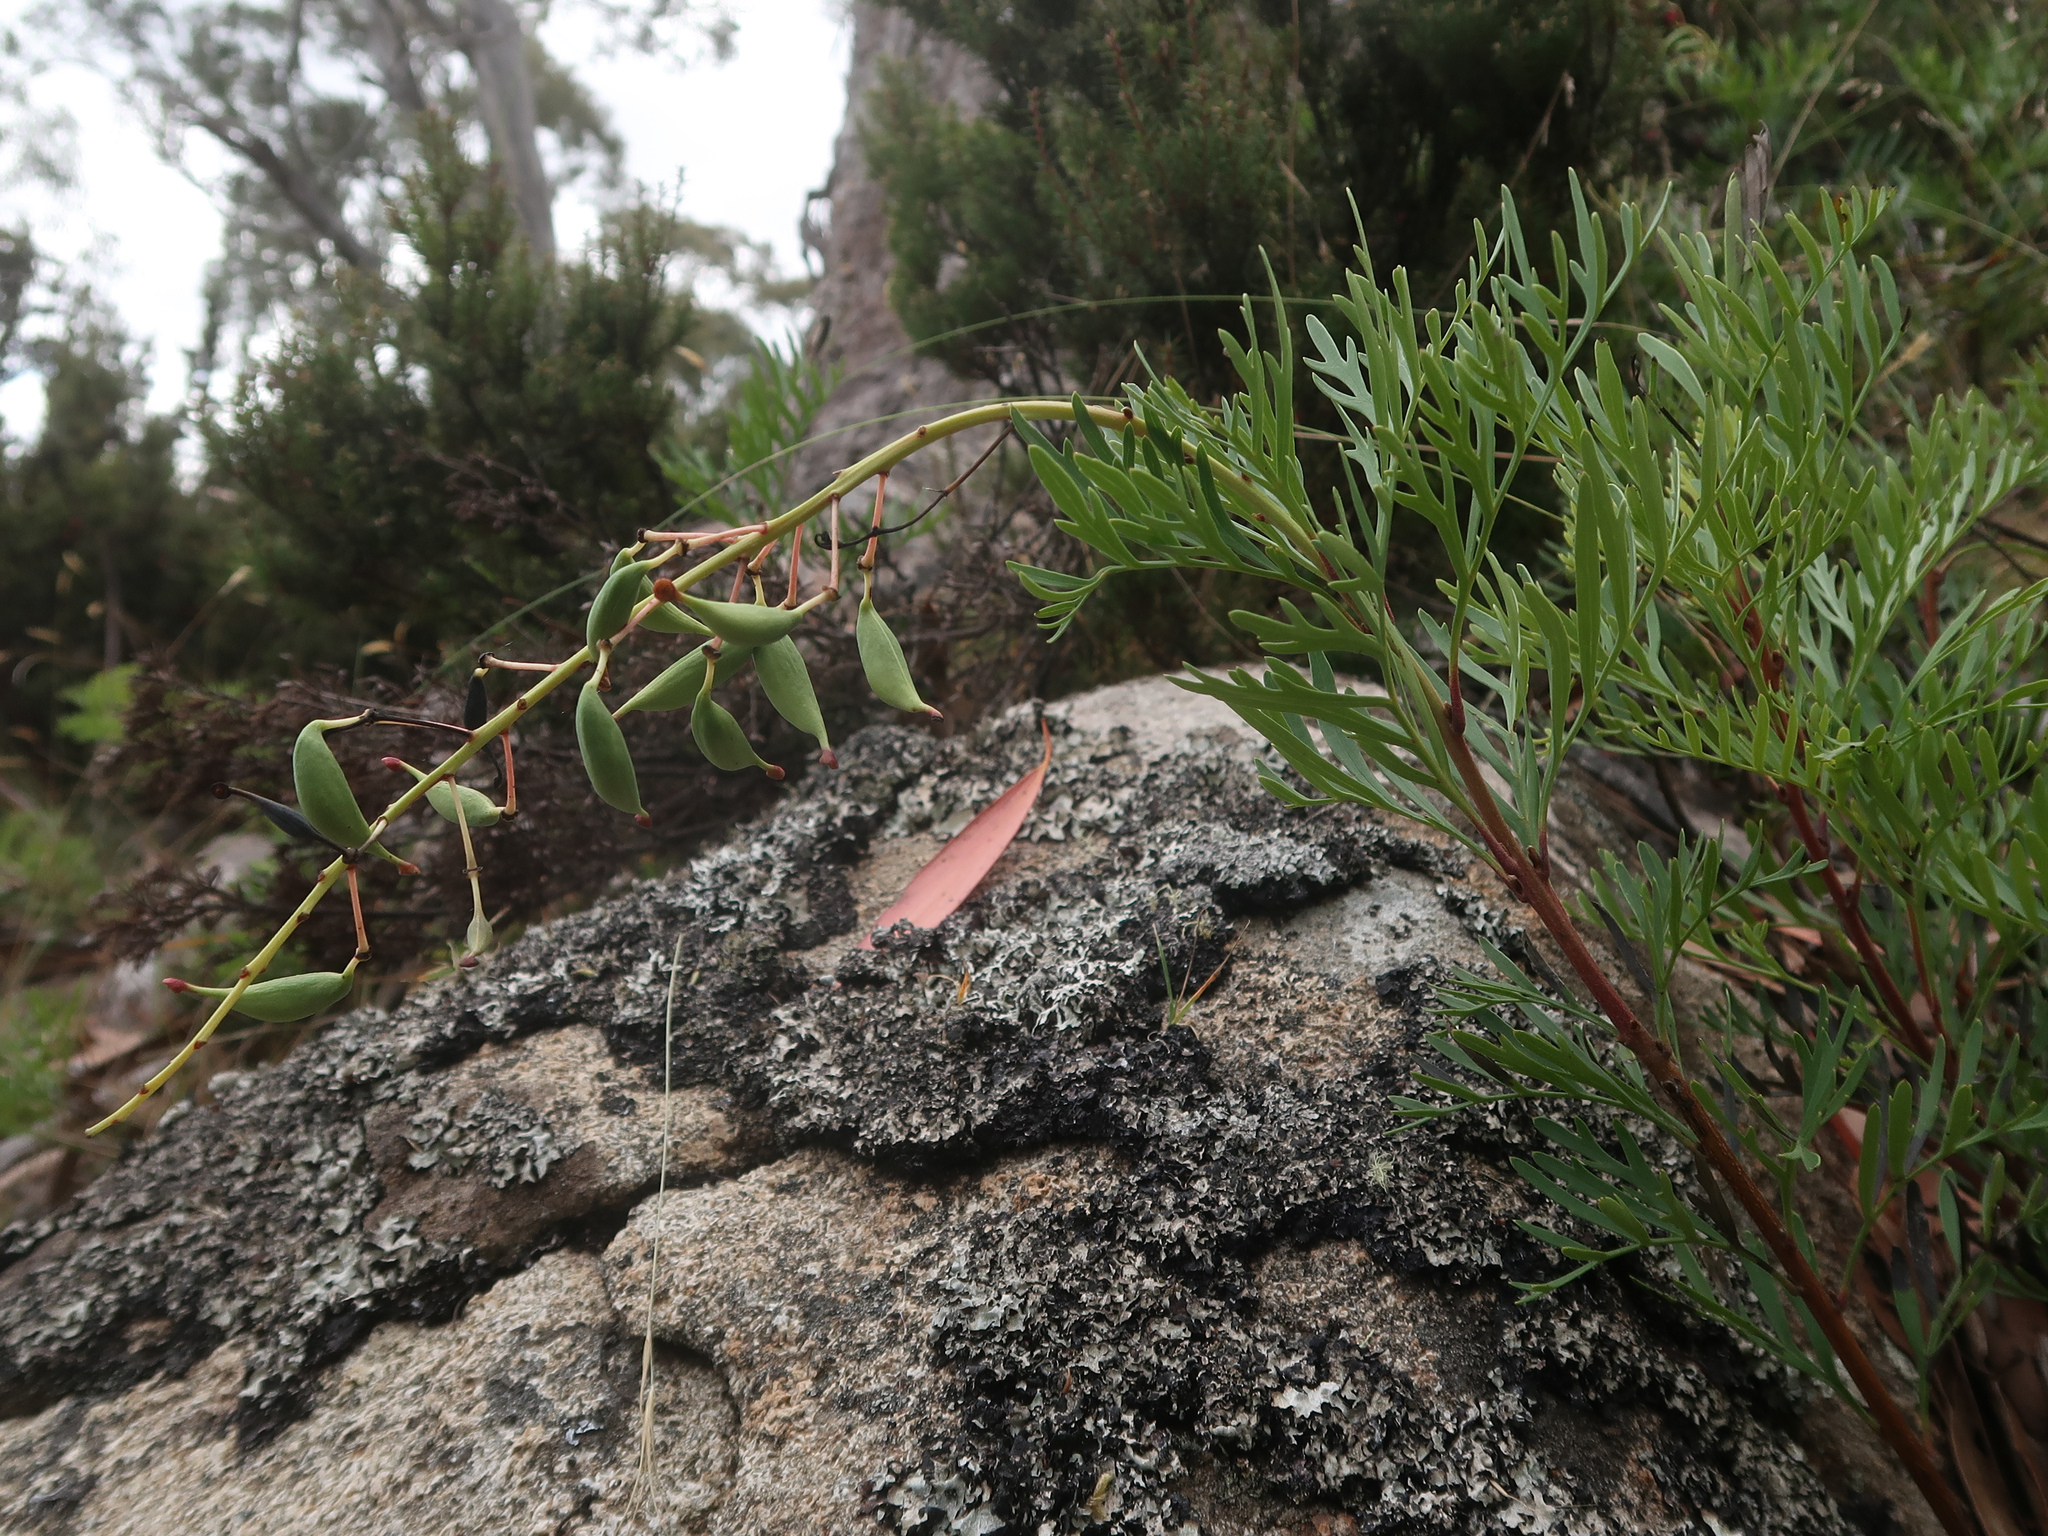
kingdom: Plantae
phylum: Tracheophyta
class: Magnoliopsida
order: Proteales
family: Proteaceae
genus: Lomatia
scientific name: Lomatia tinctoria
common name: Guitar plant
